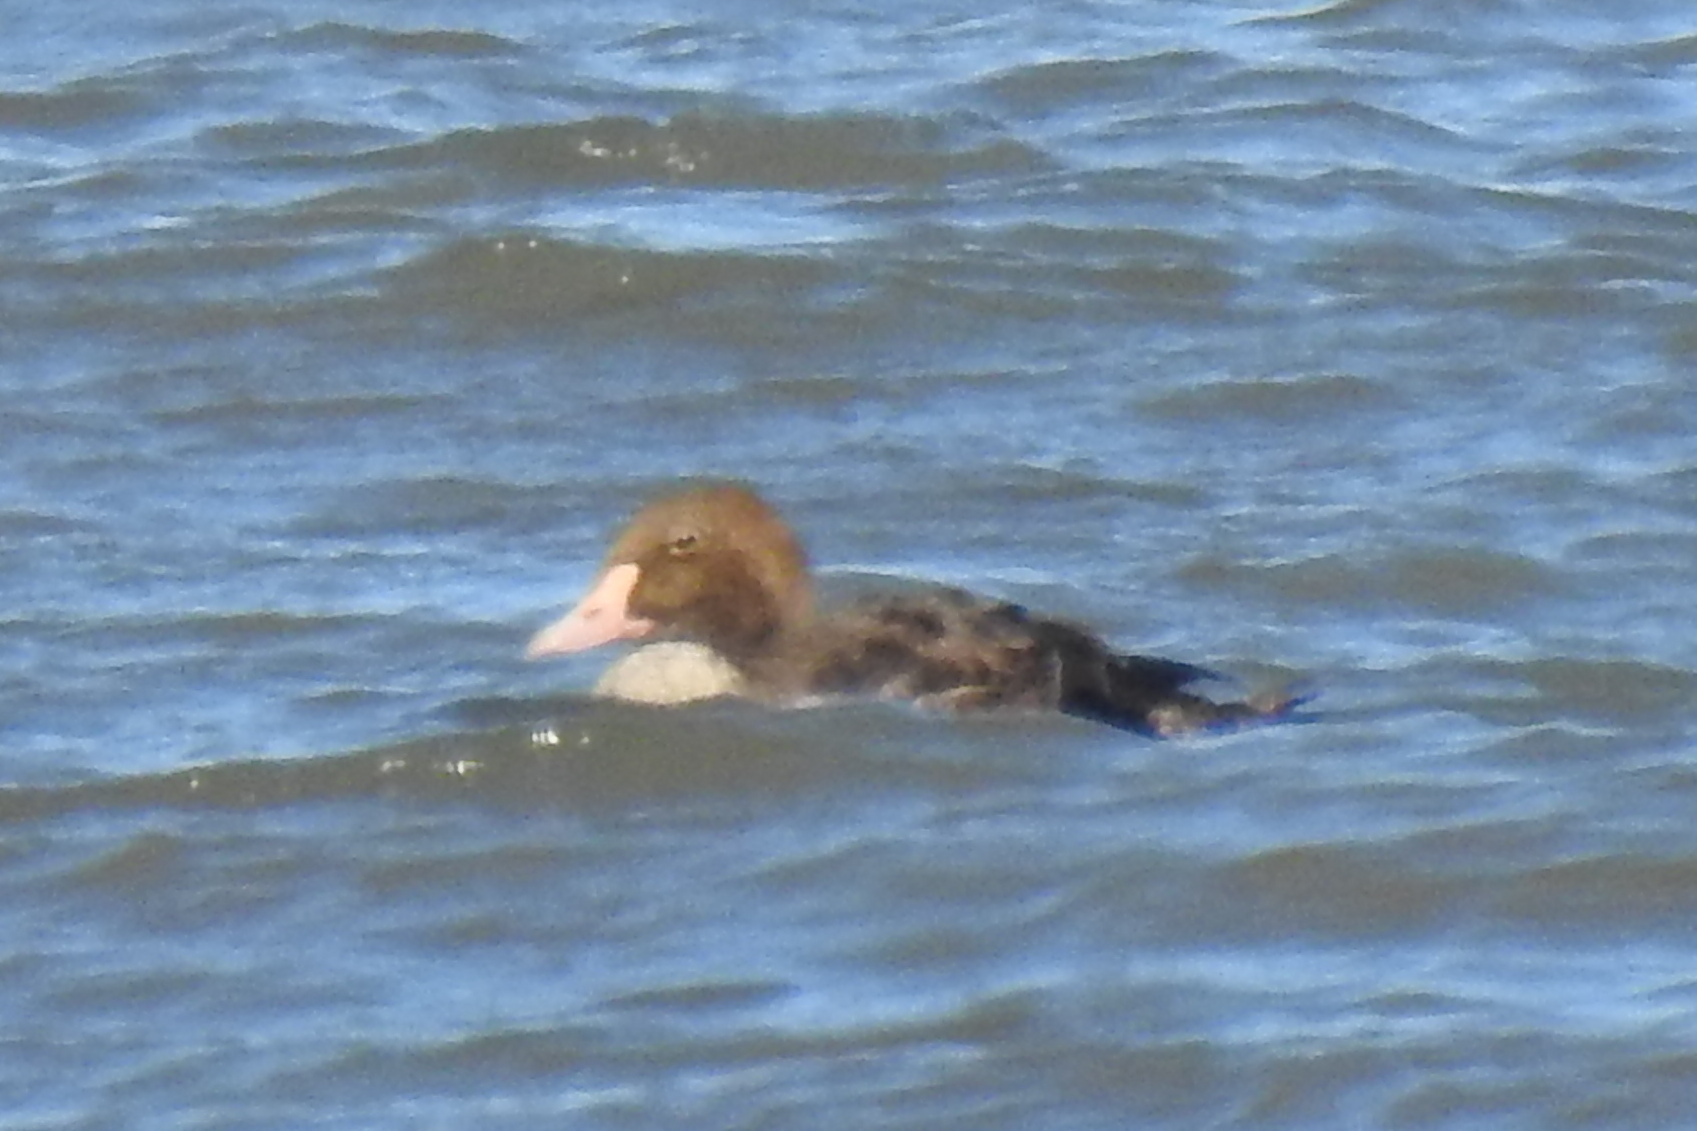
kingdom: Animalia
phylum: Chordata
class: Aves
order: Anseriformes
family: Anatidae
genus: Somateria
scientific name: Somateria spectabilis
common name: King eider
